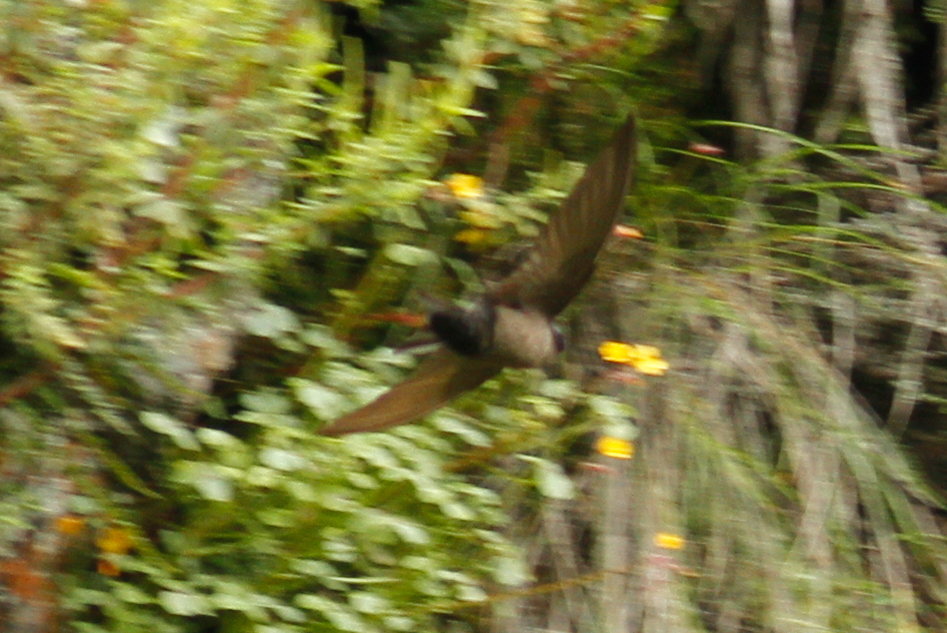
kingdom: Animalia
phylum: Chordata
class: Aves
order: Passeriformes
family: Hirundinidae
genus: Notiochelidon
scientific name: Notiochelidon murina
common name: Brown-bellied swallow
